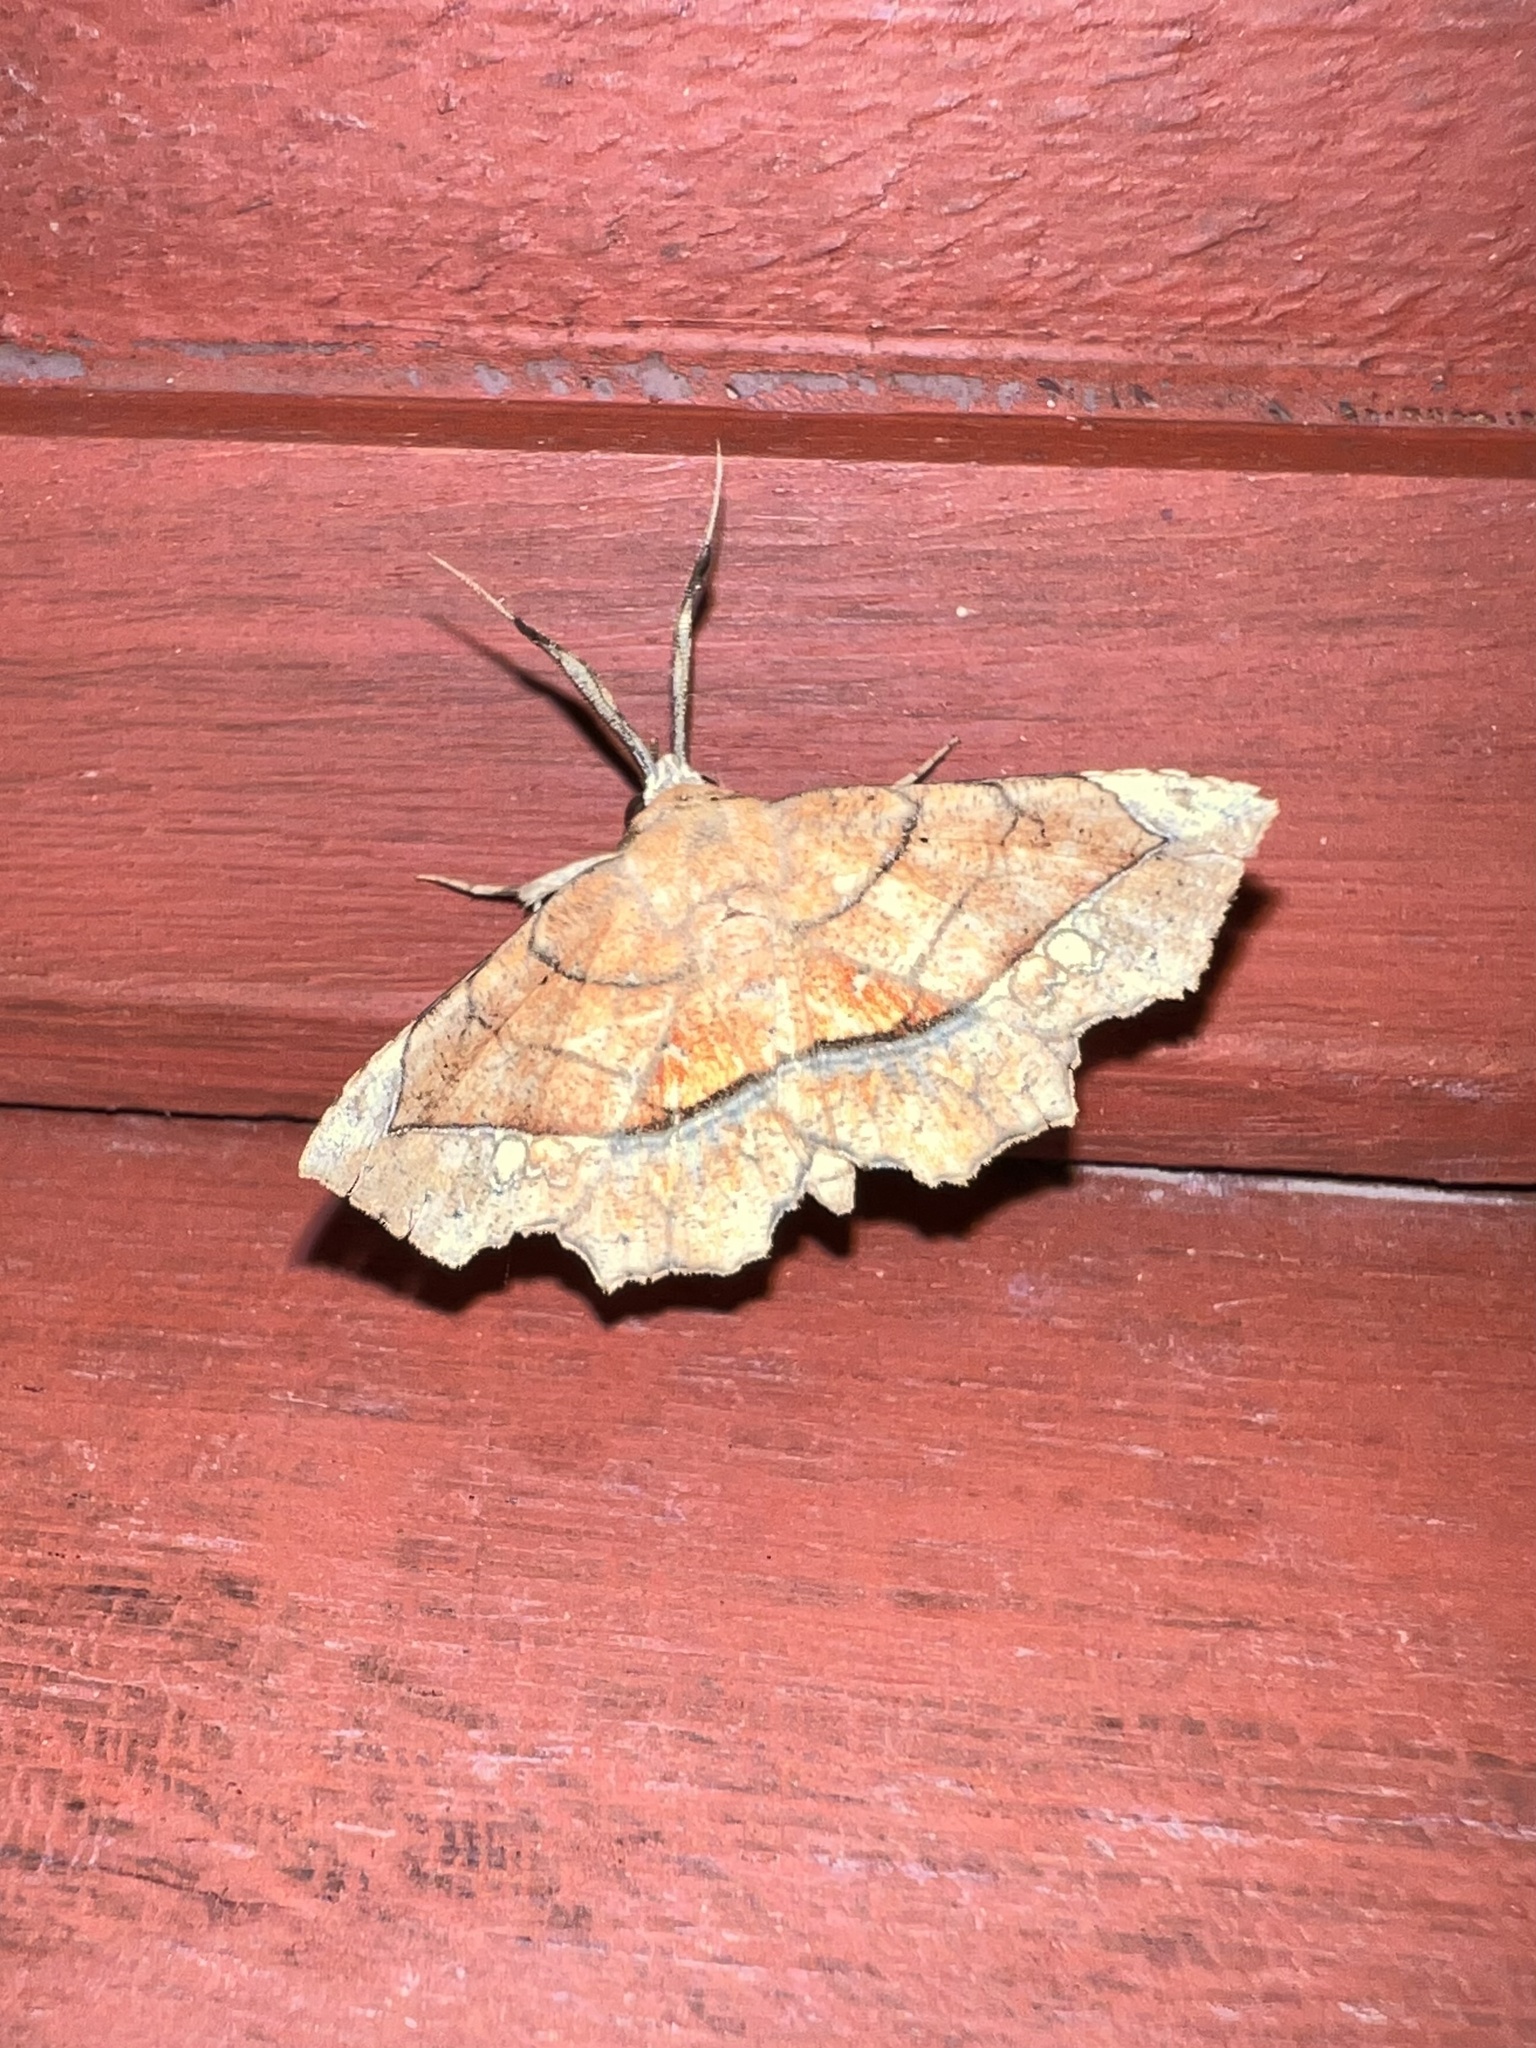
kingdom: Animalia
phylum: Arthropoda
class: Insecta
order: Lepidoptera
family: Erebidae
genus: Syllectra
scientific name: Syllectra erycata
